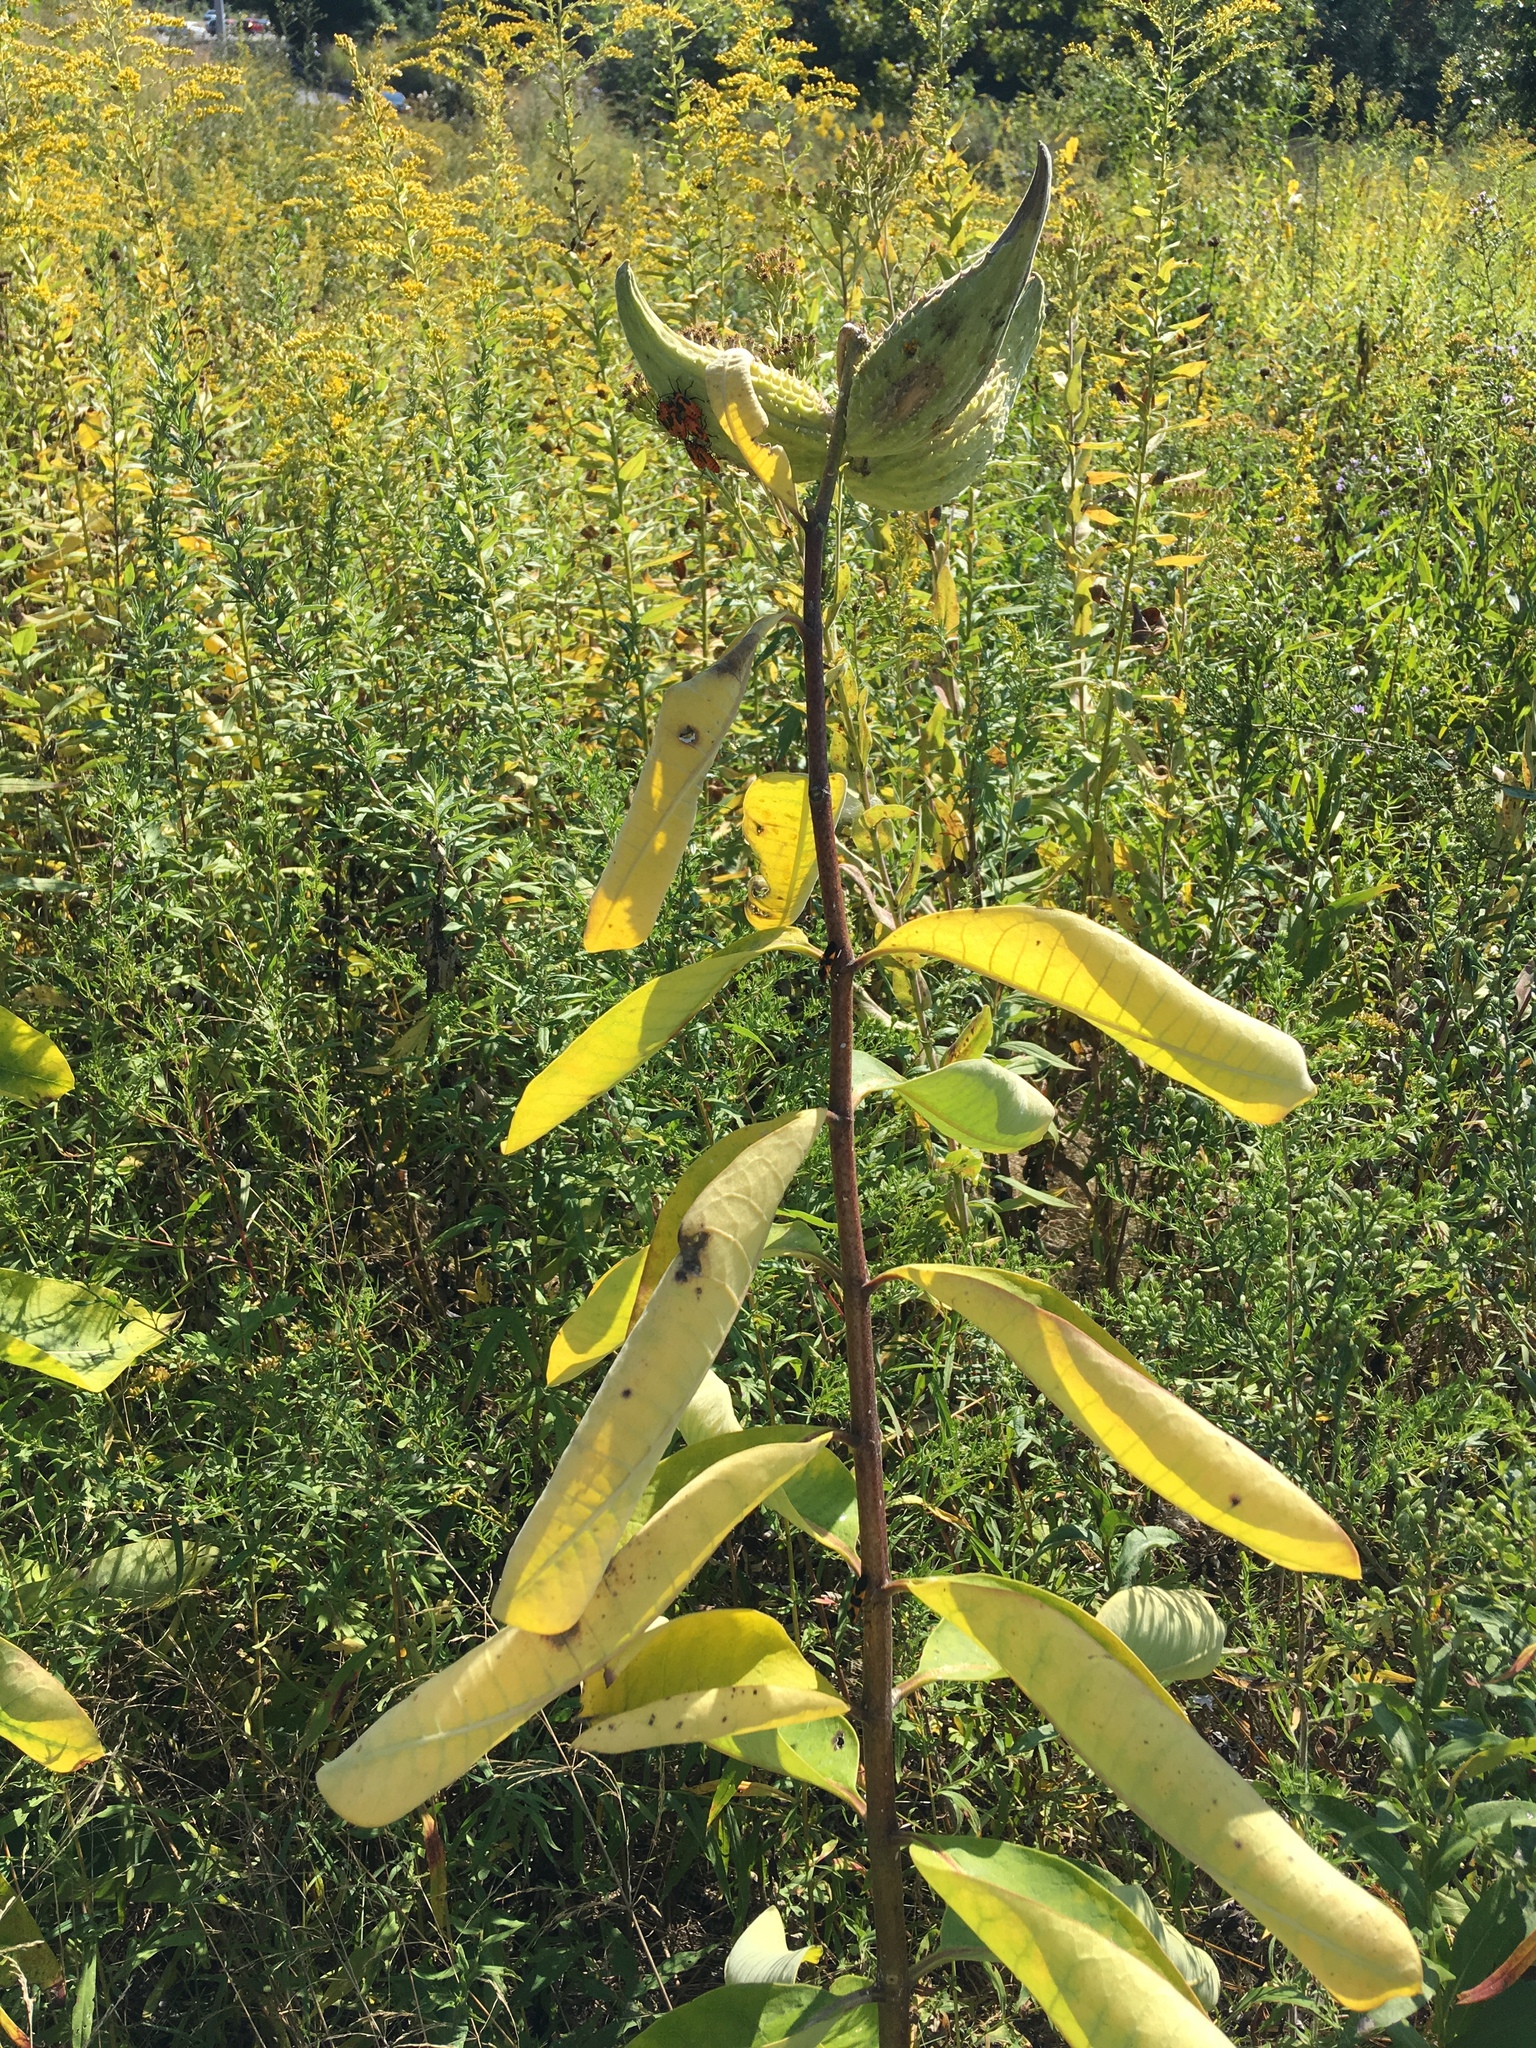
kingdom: Plantae
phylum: Tracheophyta
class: Magnoliopsida
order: Gentianales
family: Apocynaceae
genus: Asclepias
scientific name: Asclepias syriaca
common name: Common milkweed
